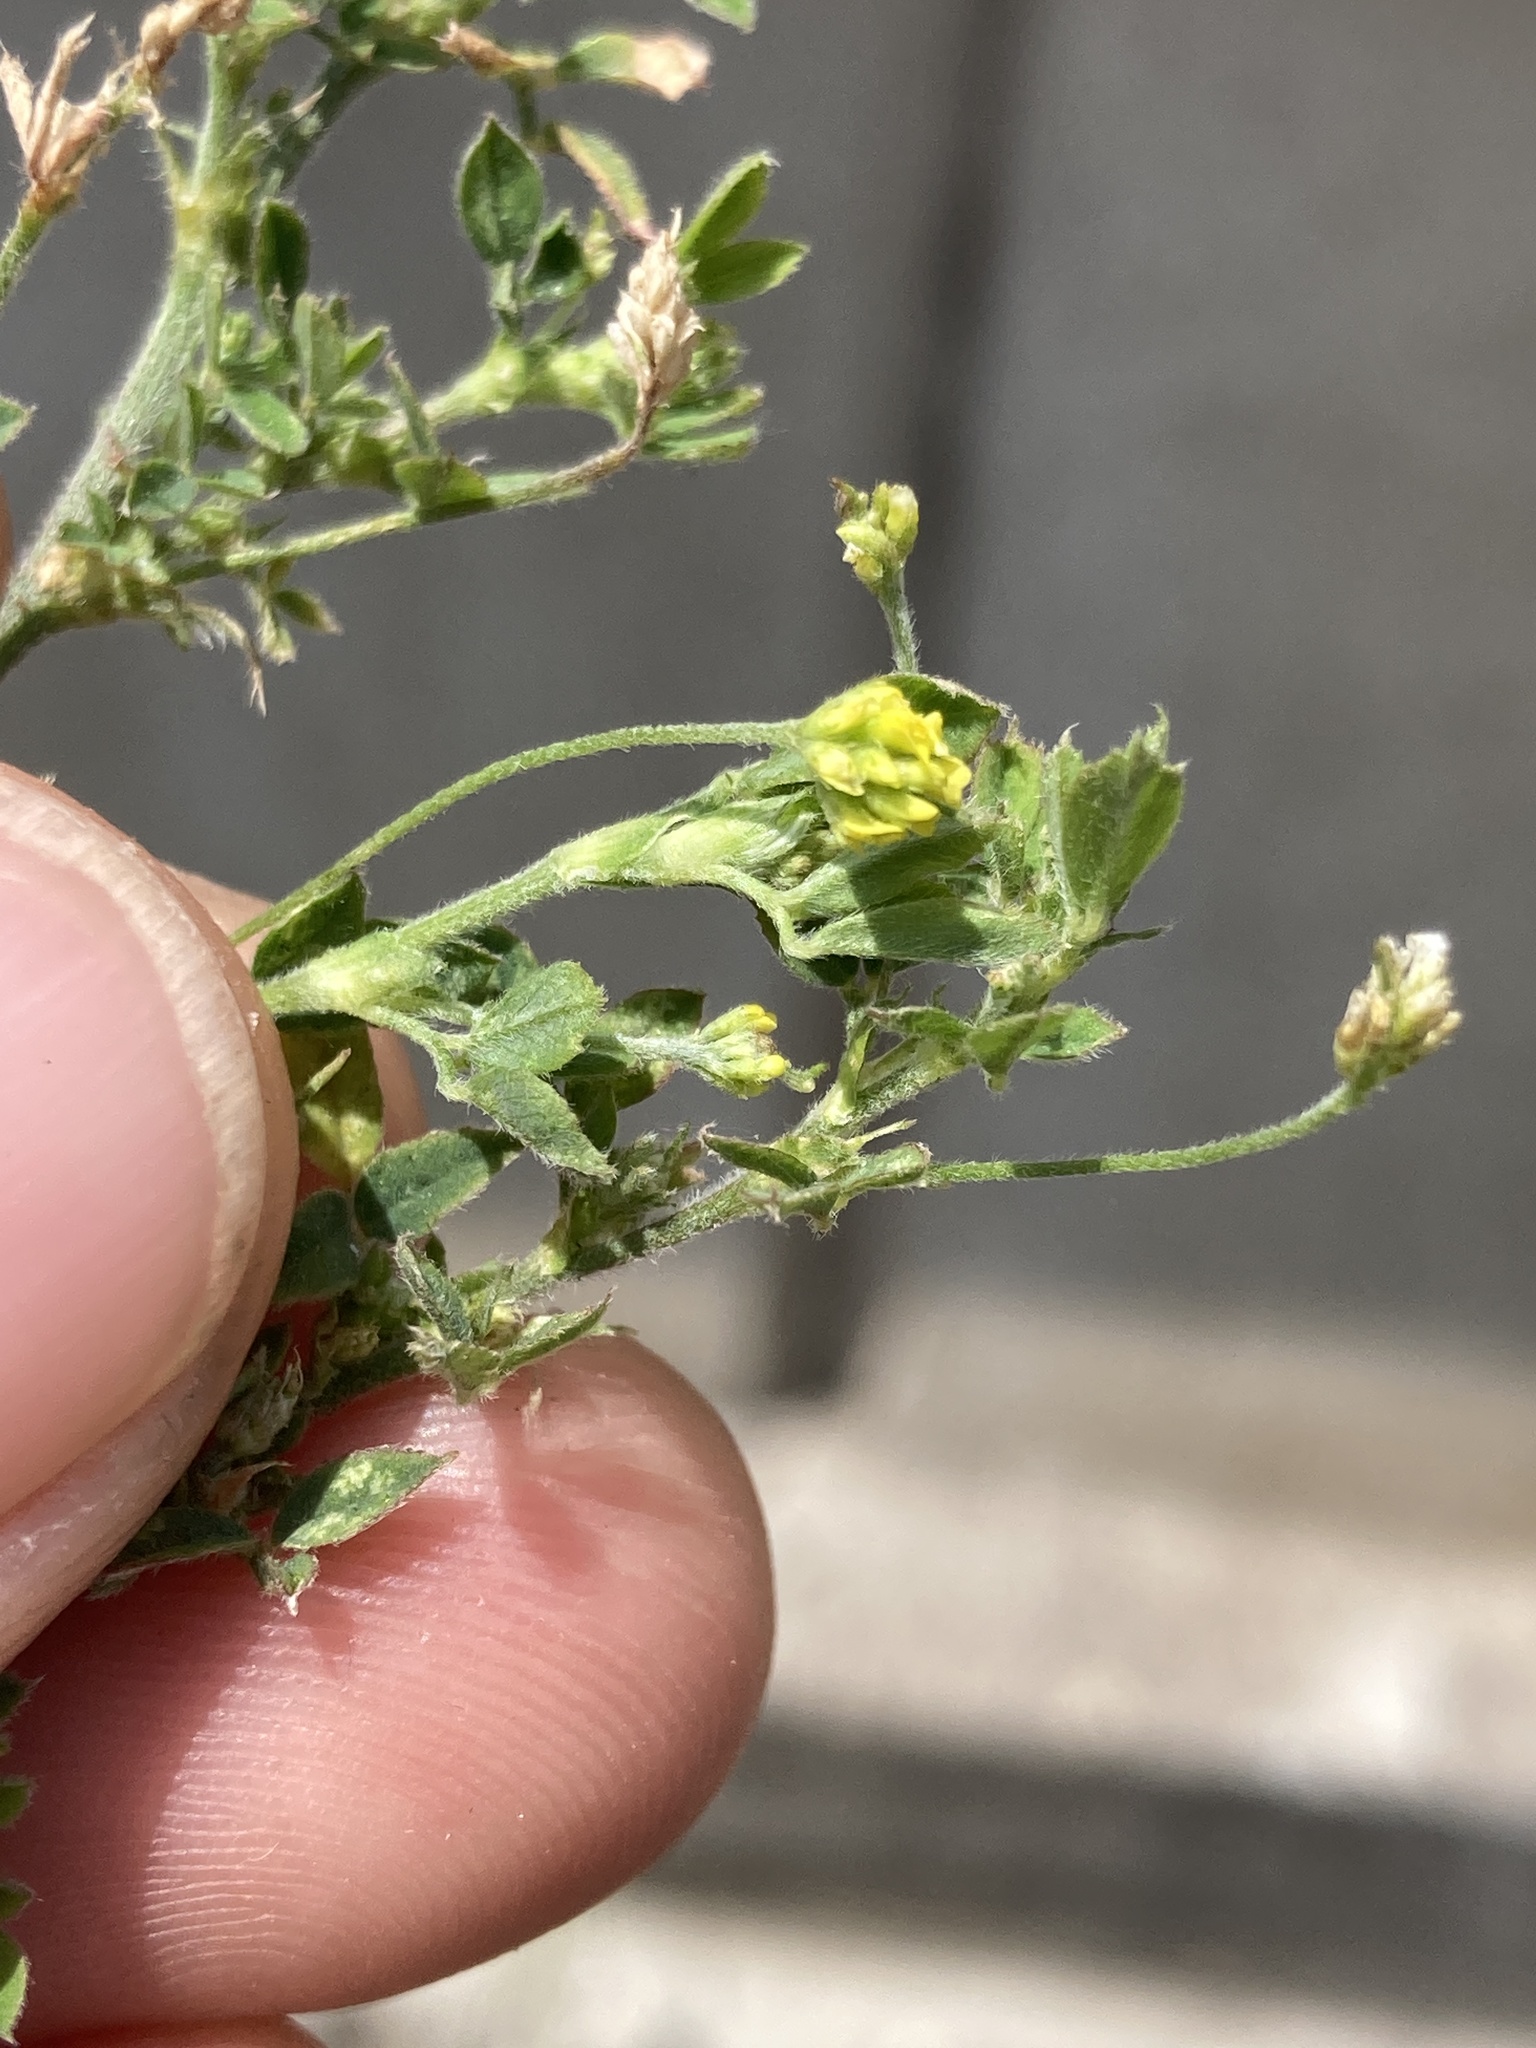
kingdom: Plantae
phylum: Tracheophyta
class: Magnoliopsida
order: Fabales
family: Fabaceae
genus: Medicago
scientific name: Medicago lupulina
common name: Black medick
